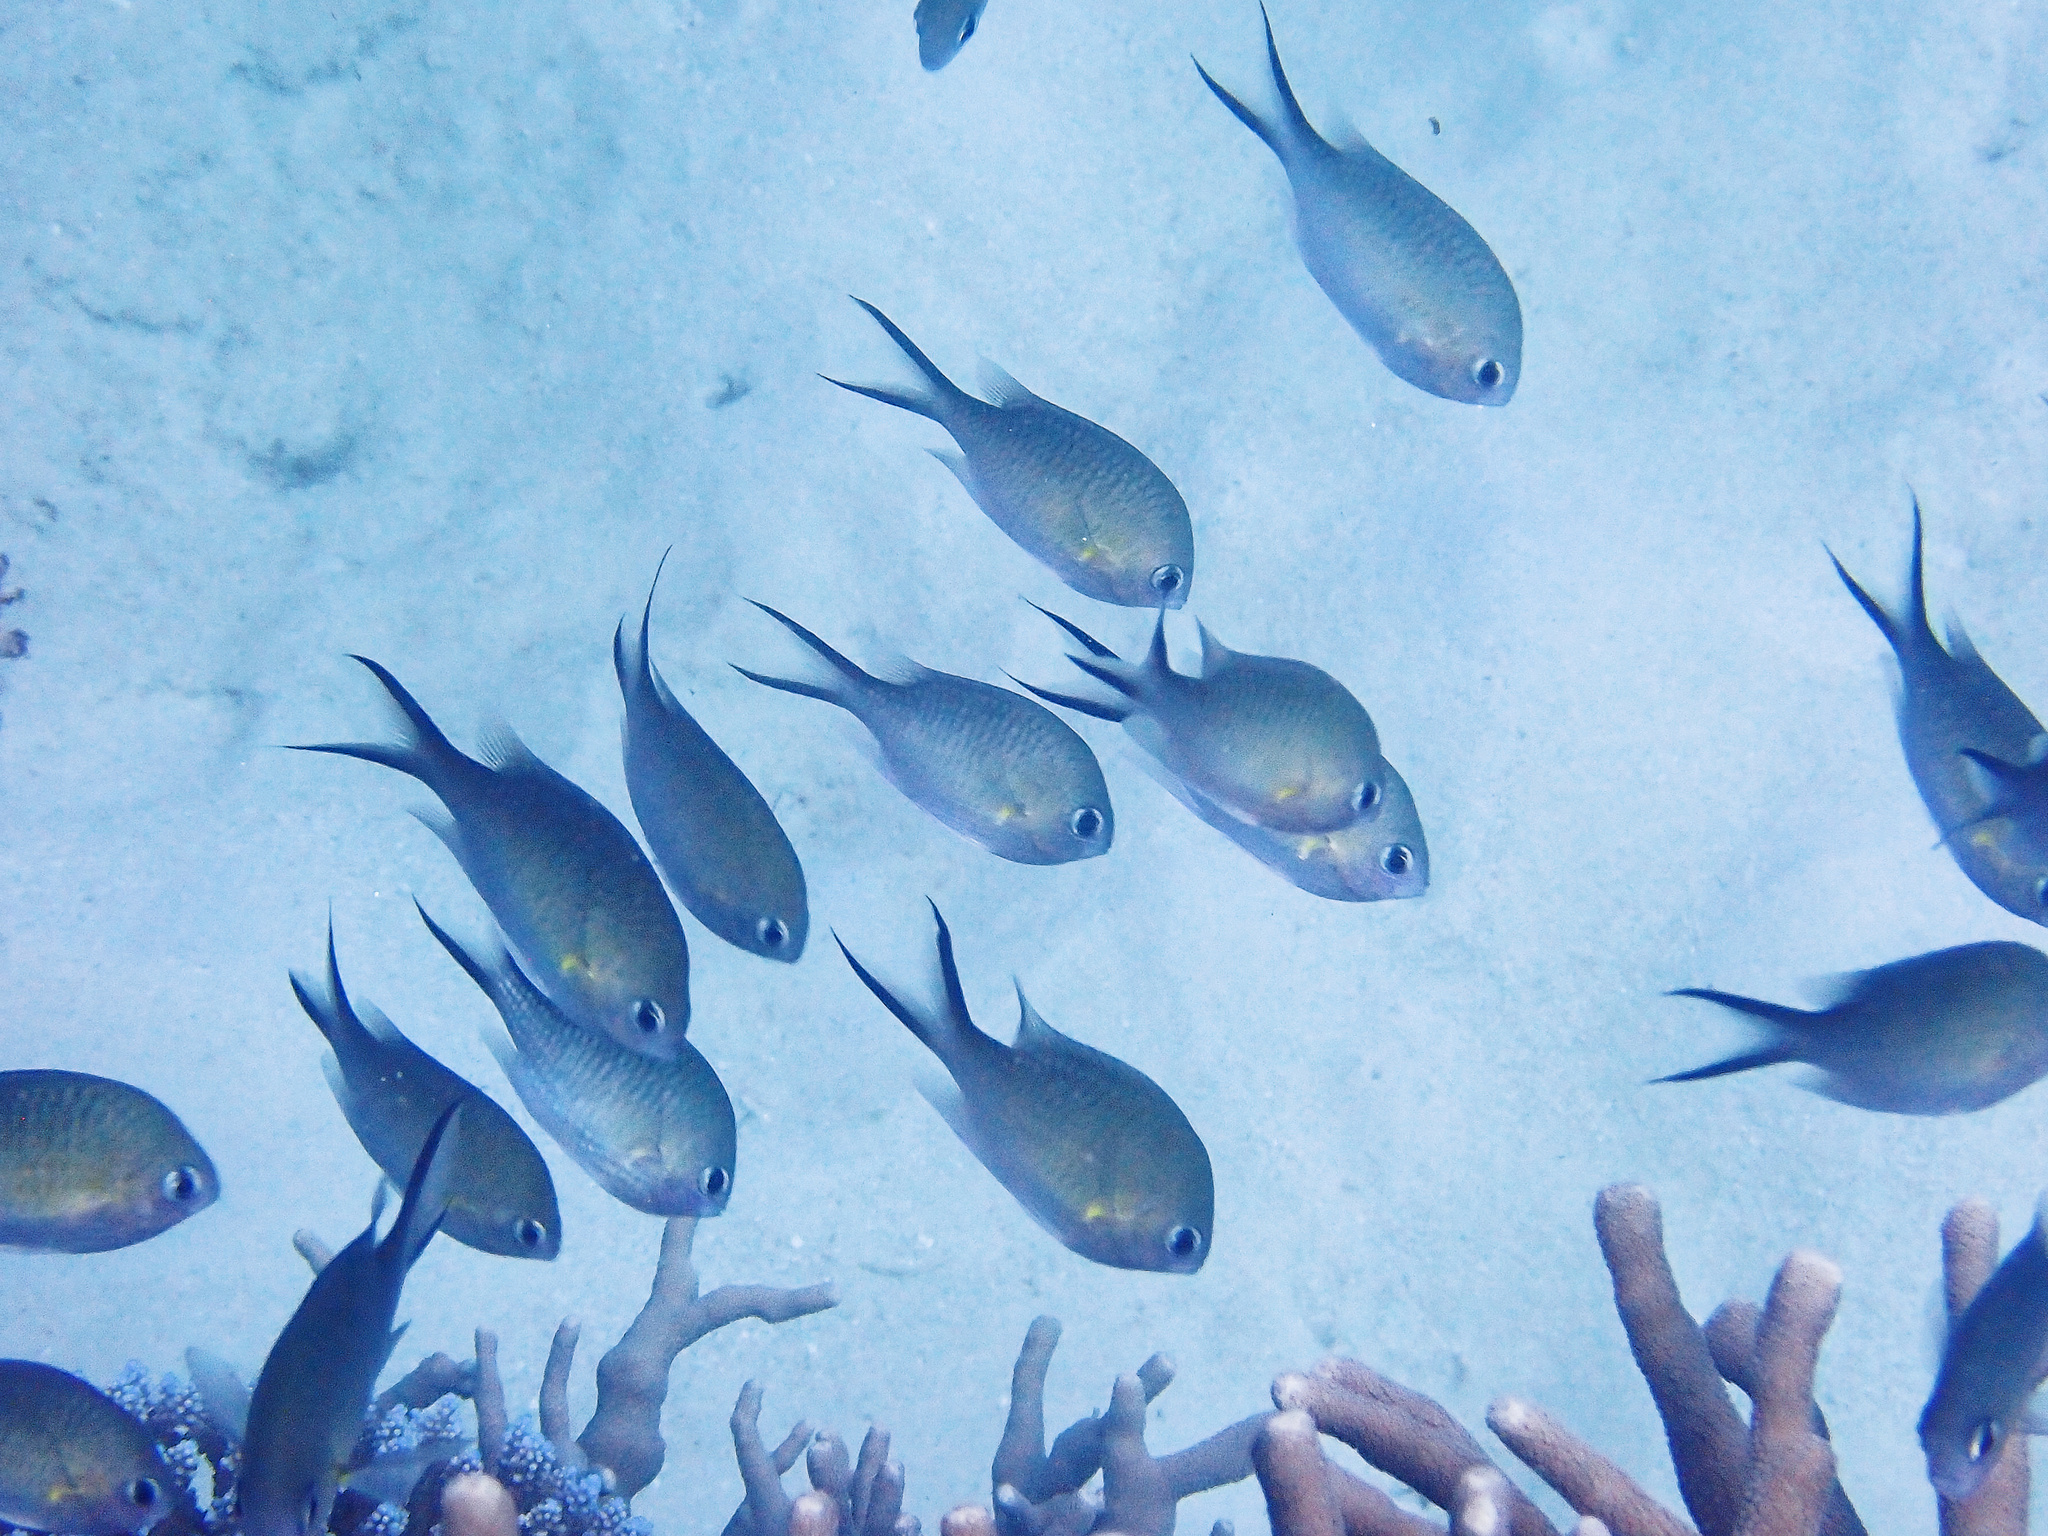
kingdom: Animalia
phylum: Chordata
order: Perciformes
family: Pomacentridae
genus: Chromis
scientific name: Chromis ternatensis
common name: Ternate chromis
